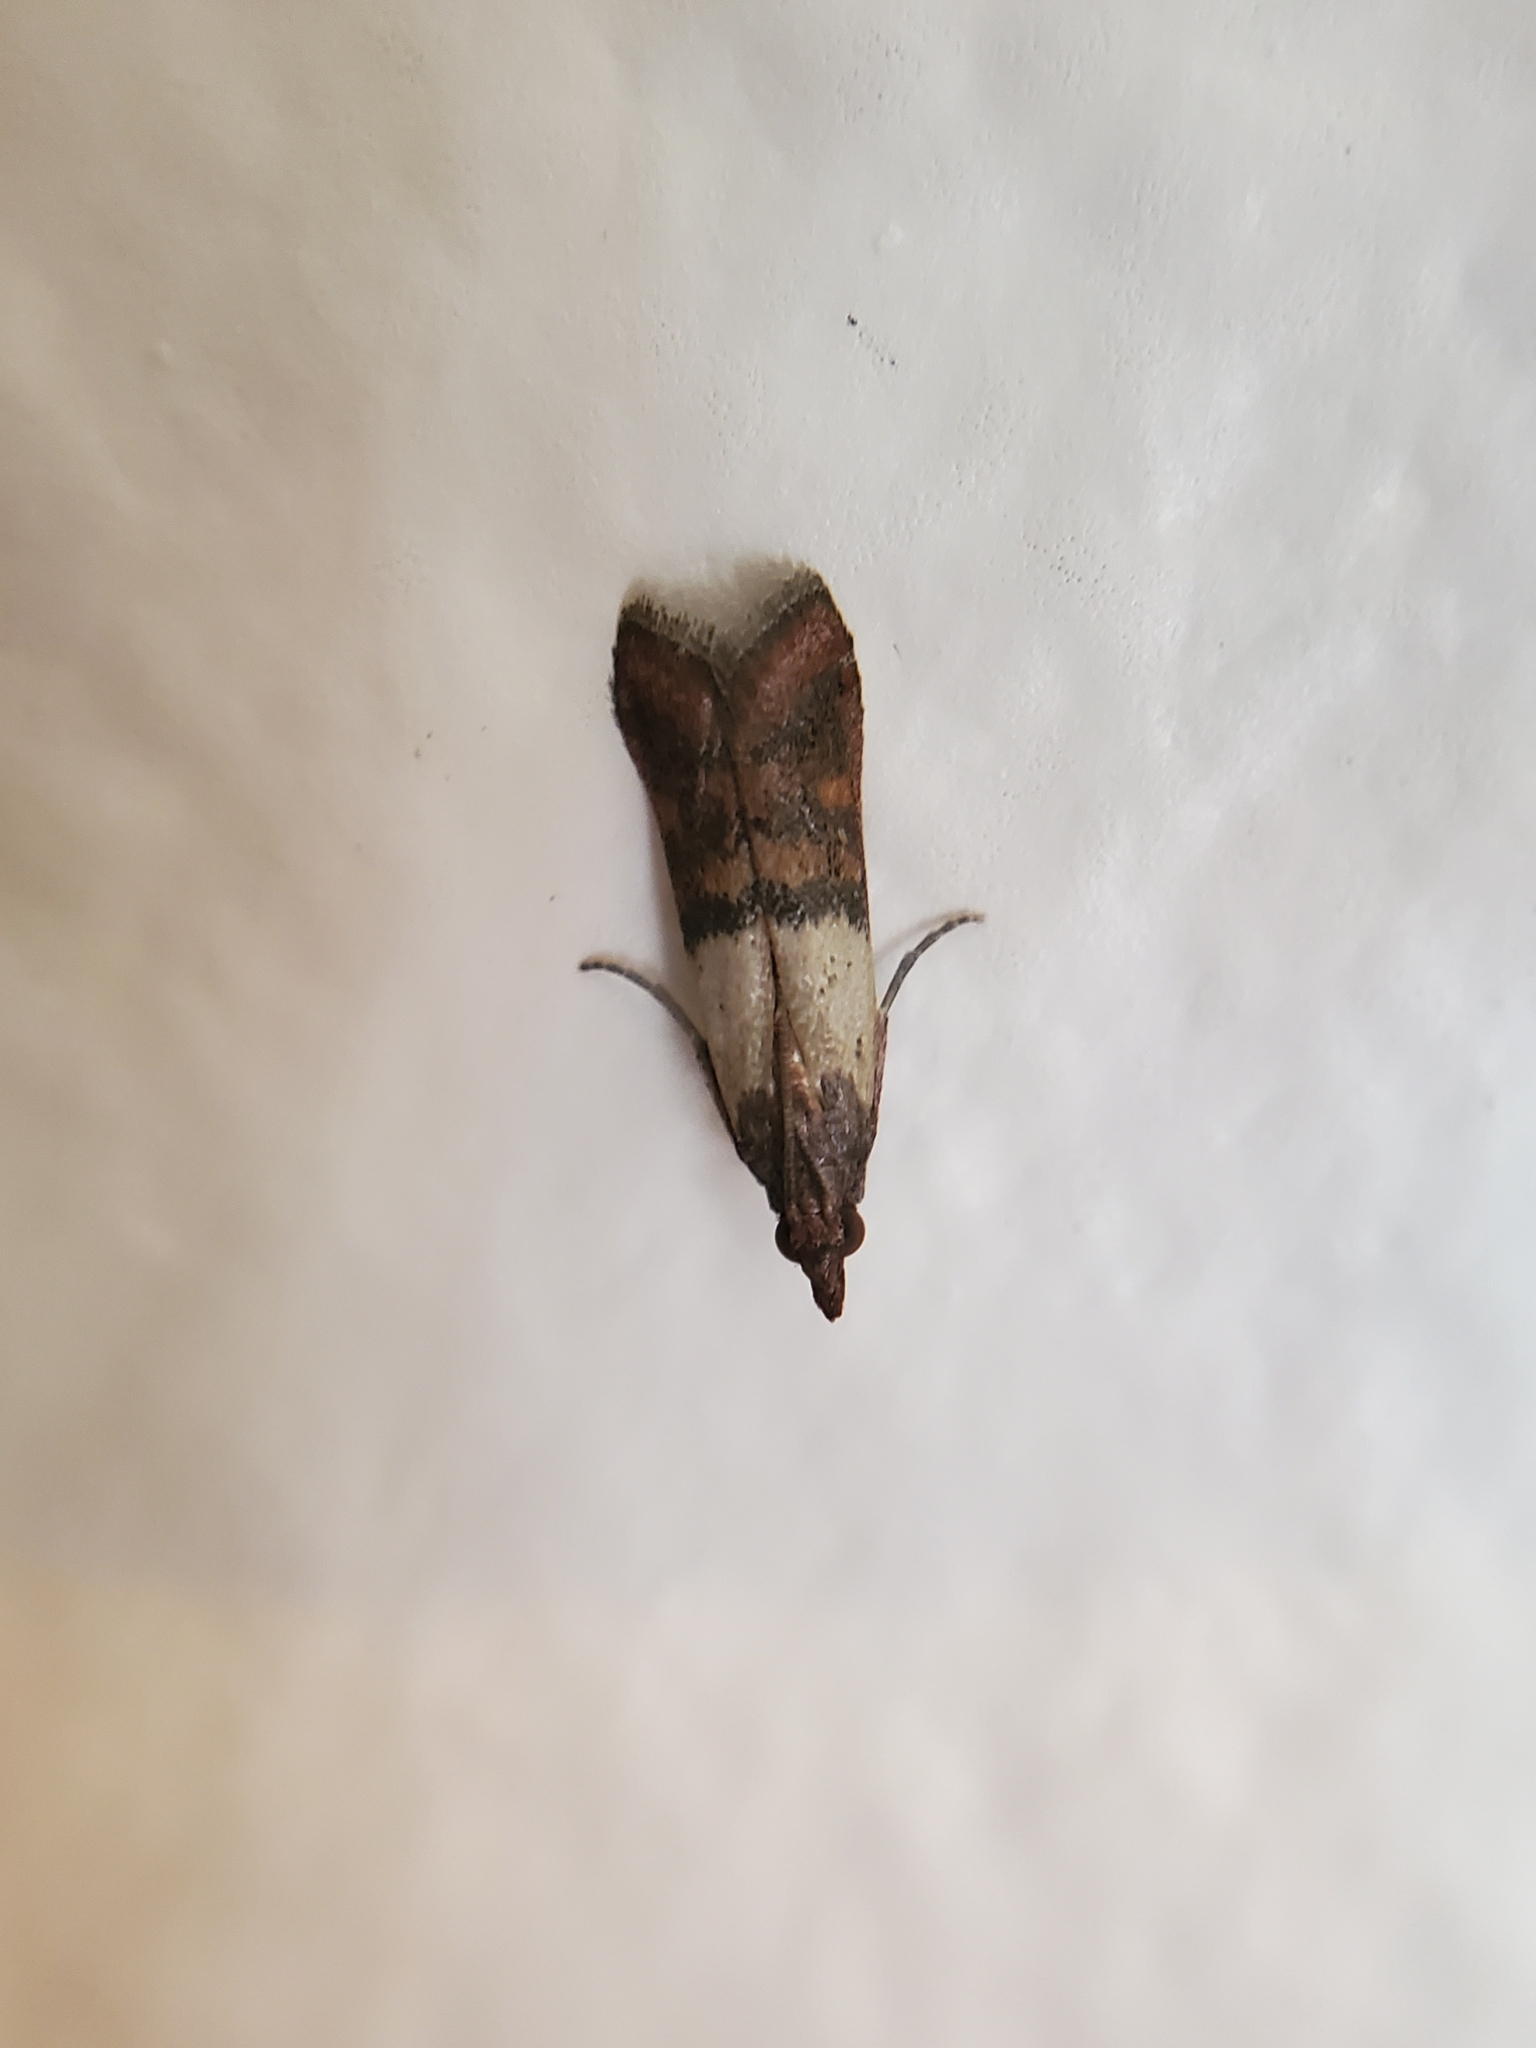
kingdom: Animalia
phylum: Arthropoda
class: Insecta
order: Lepidoptera
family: Pyralidae
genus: Plodia
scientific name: Plodia interpunctella
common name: Indian meal moth
